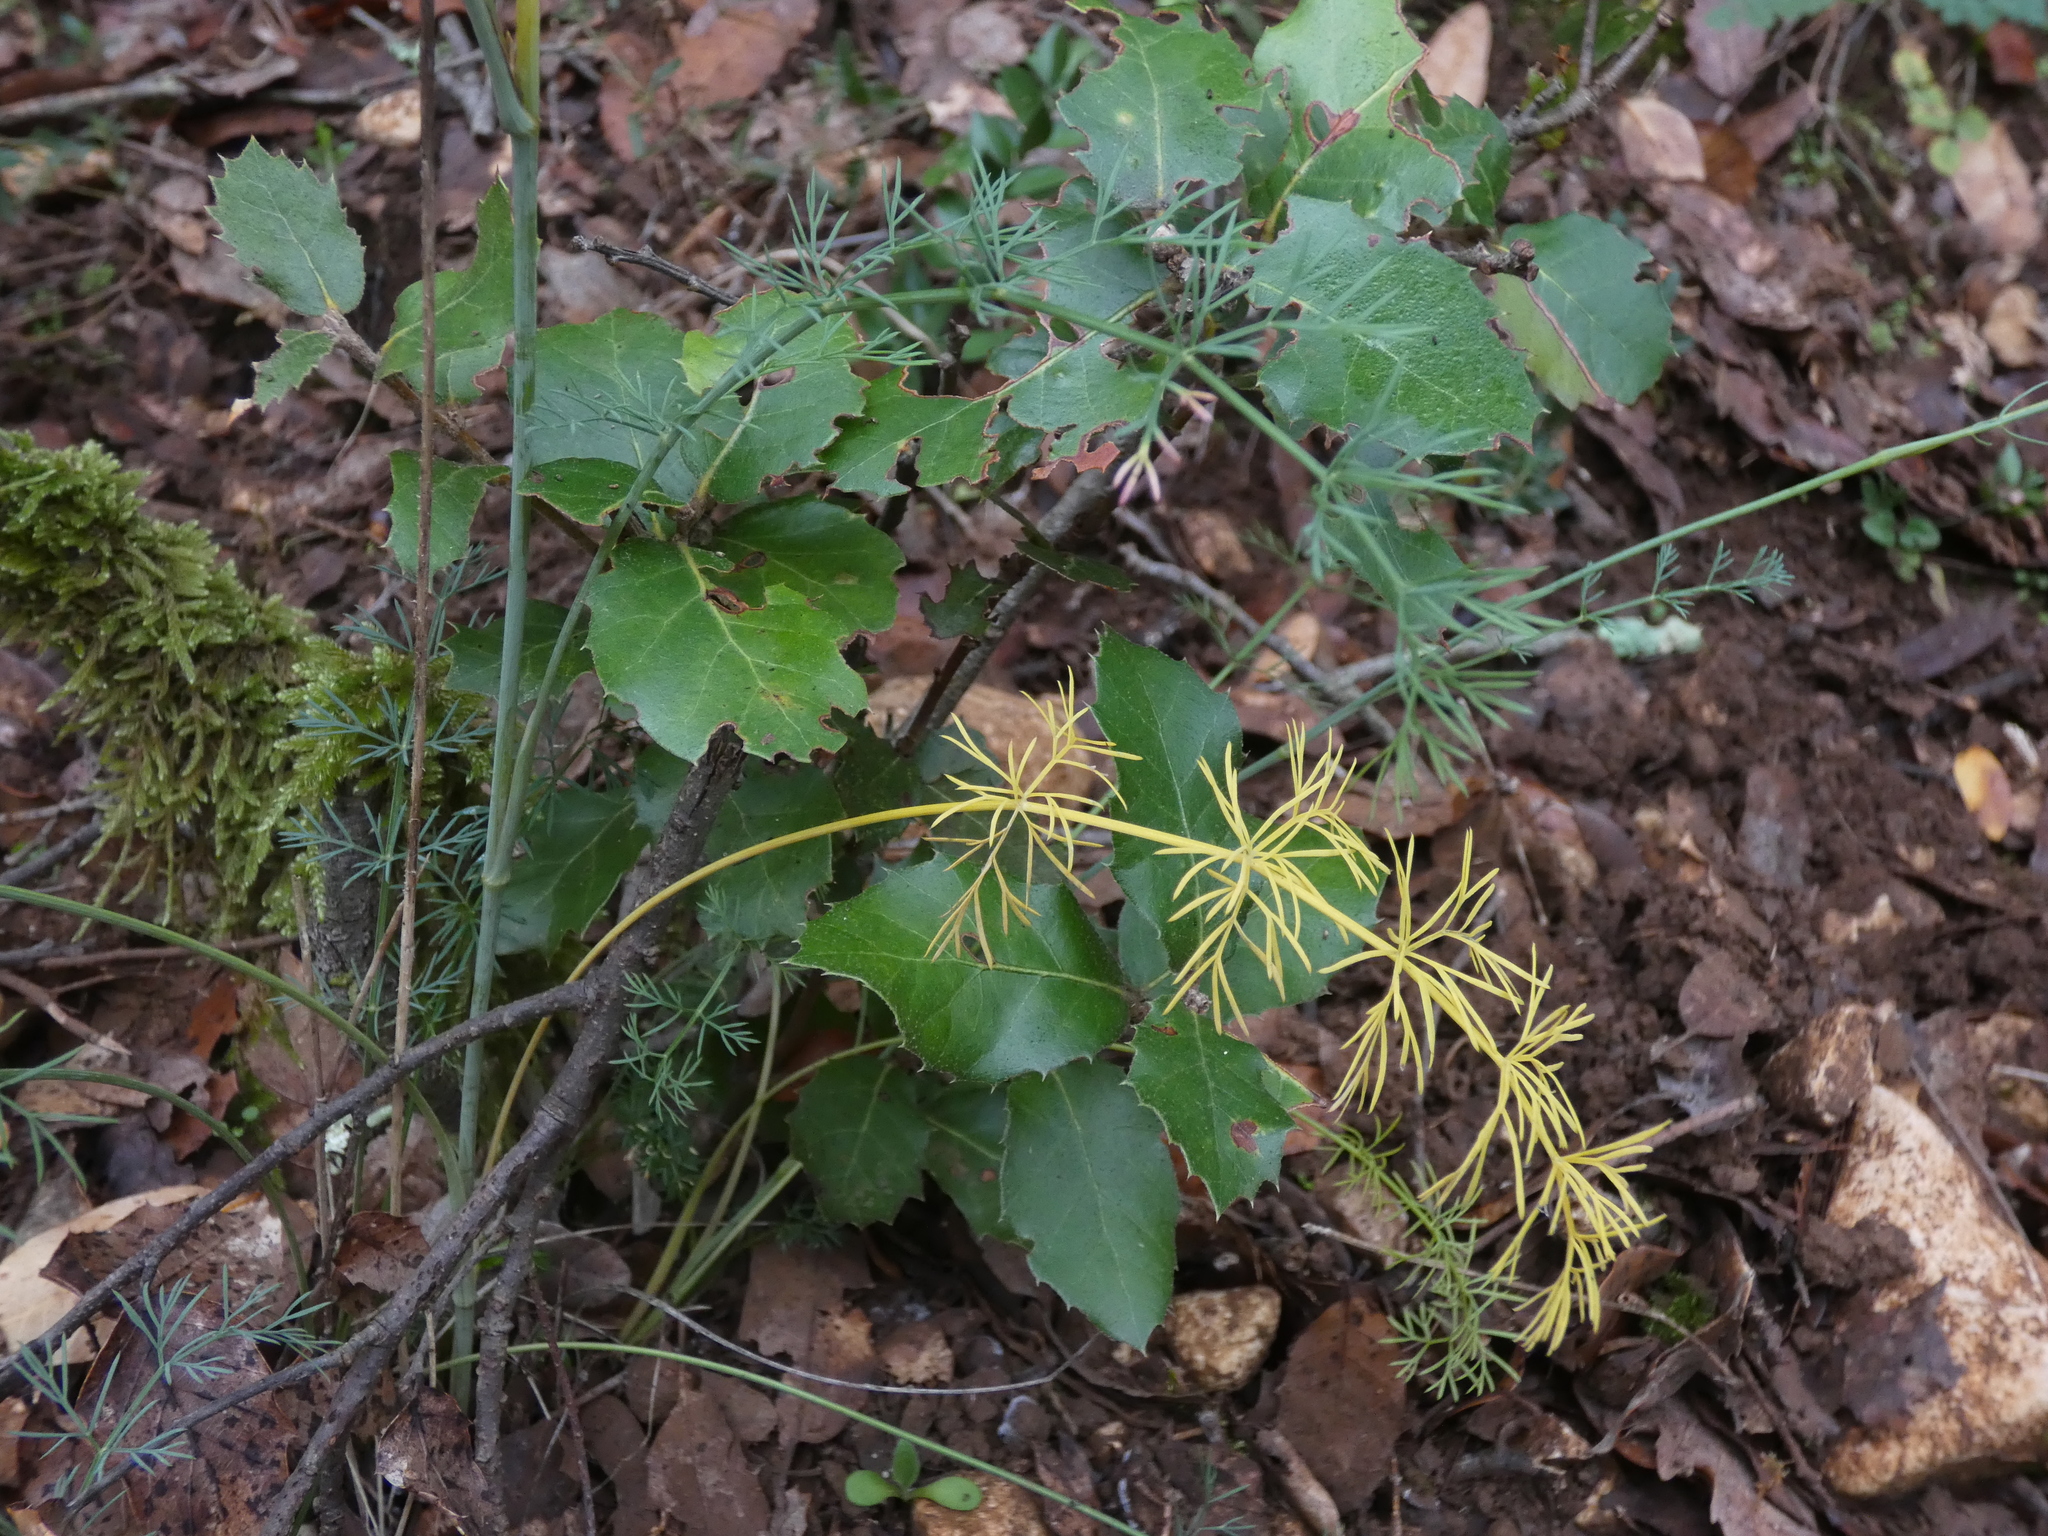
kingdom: Plantae
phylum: Tracheophyta
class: Magnoliopsida
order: Apiales
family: Apiaceae
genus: Seseli
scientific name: Seseli montanum
